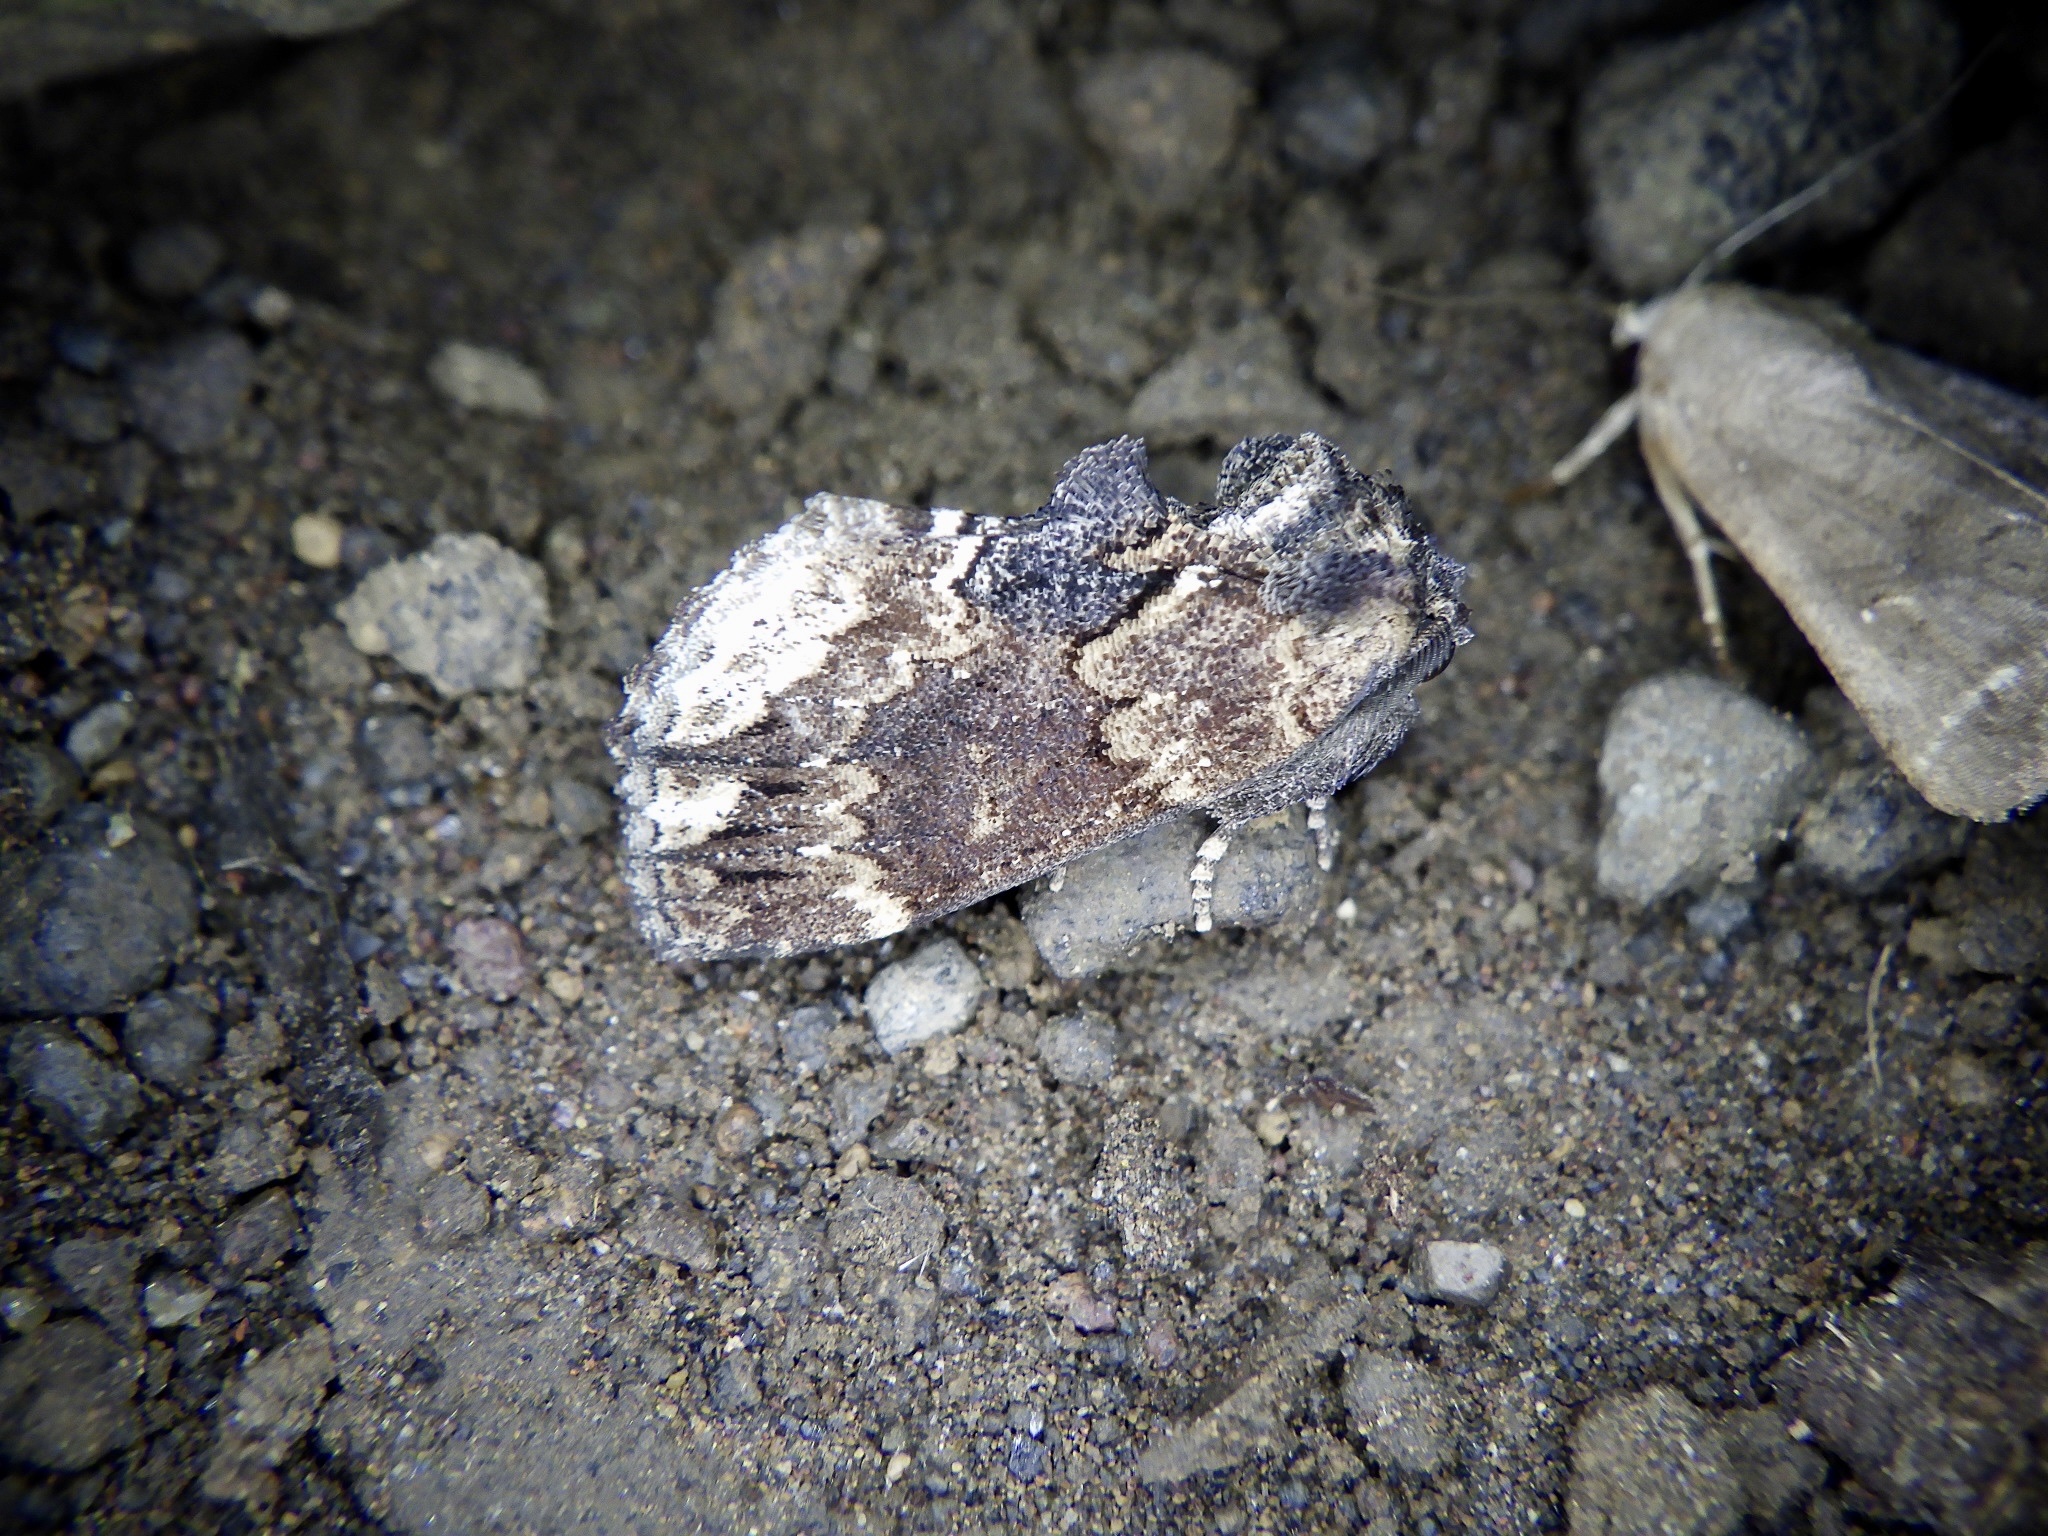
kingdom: Animalia
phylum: Arthropoda
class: Insecta
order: Lepidoptera
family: Notodontidae
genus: Lophontosia
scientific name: Lophontosia
